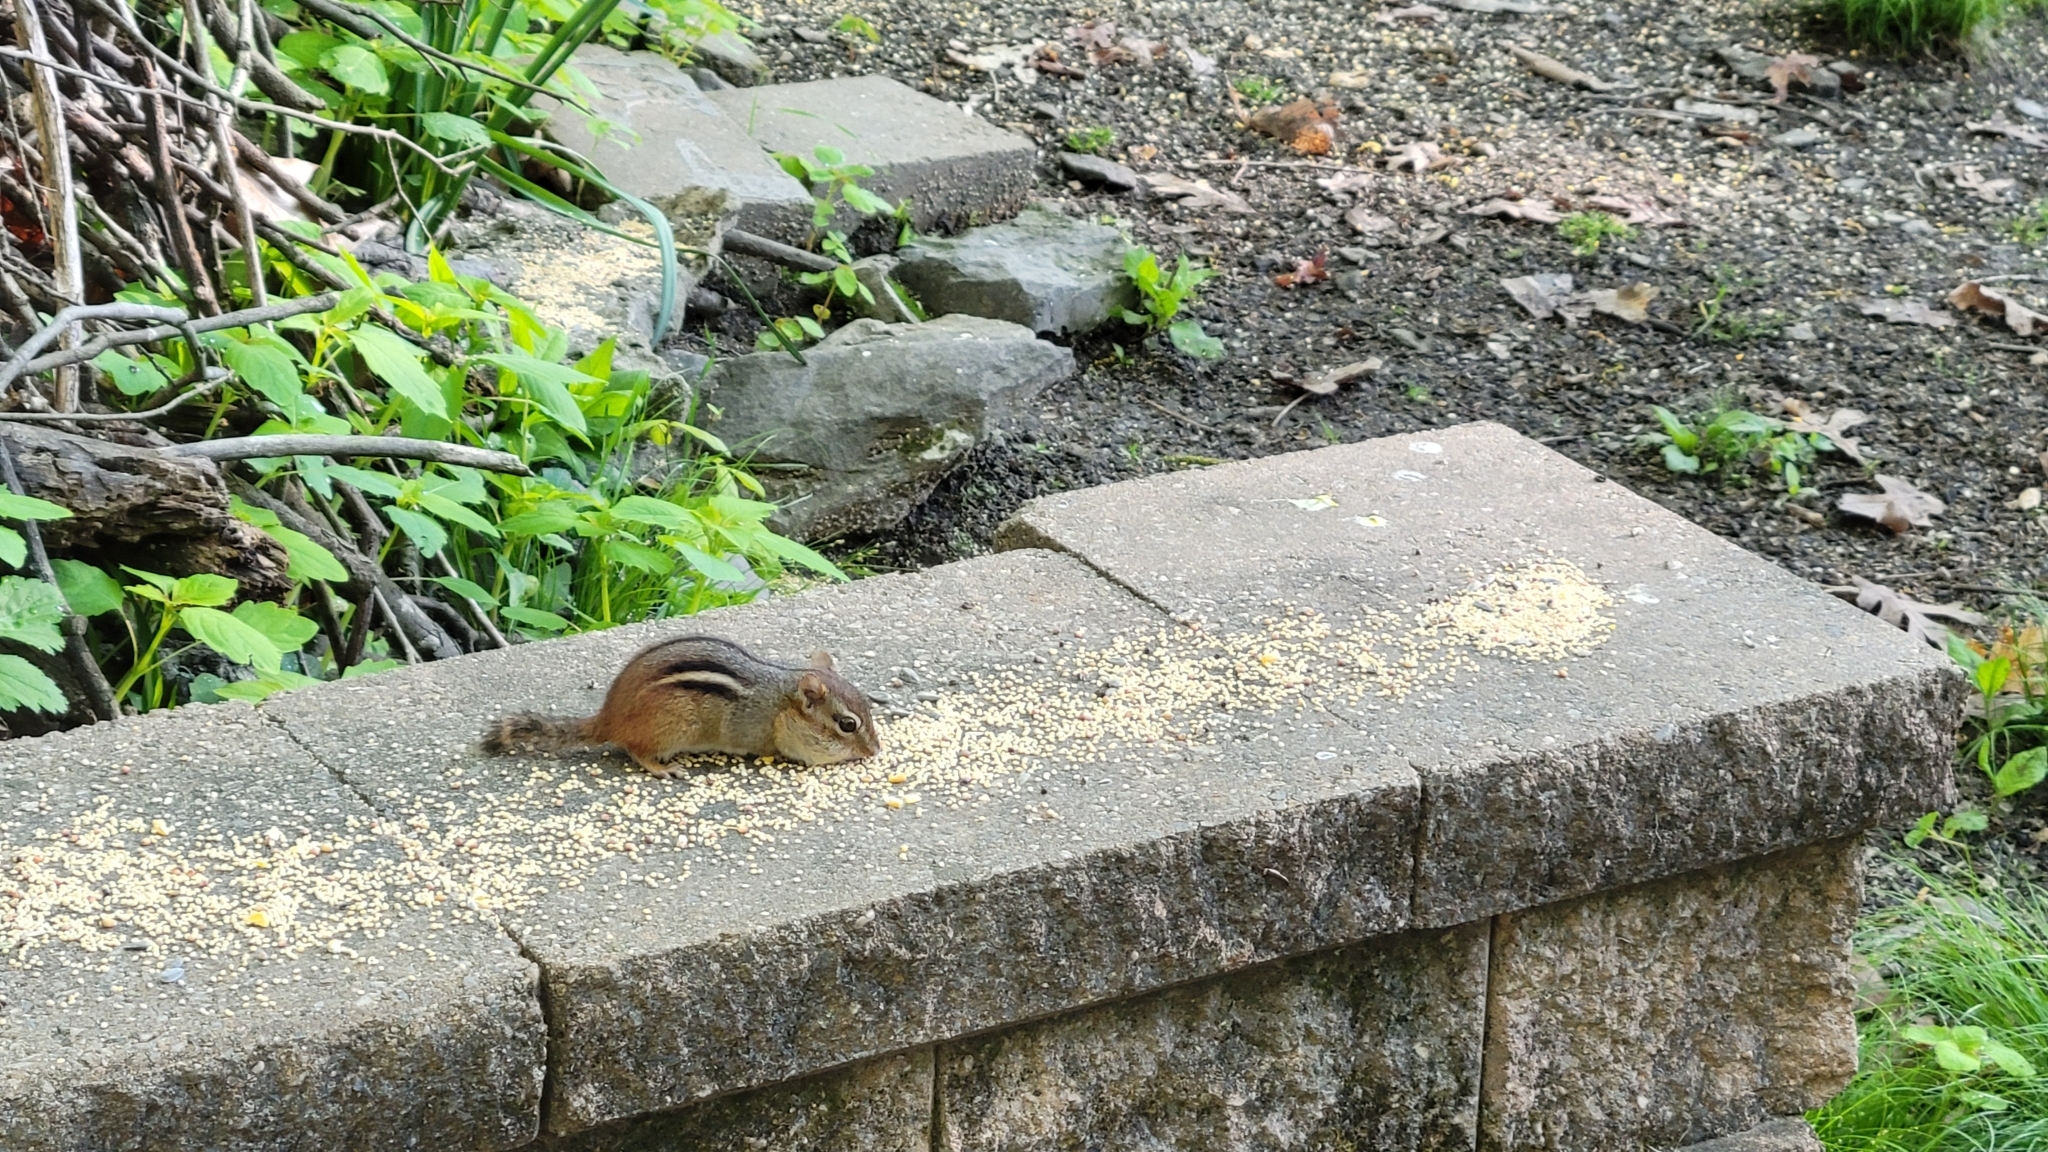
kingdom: Animalia
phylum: Chordata
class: Mammalia
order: Rodentia
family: Sciuridae
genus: Tamias
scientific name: Tamias striatus
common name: Eastern chipmunk
